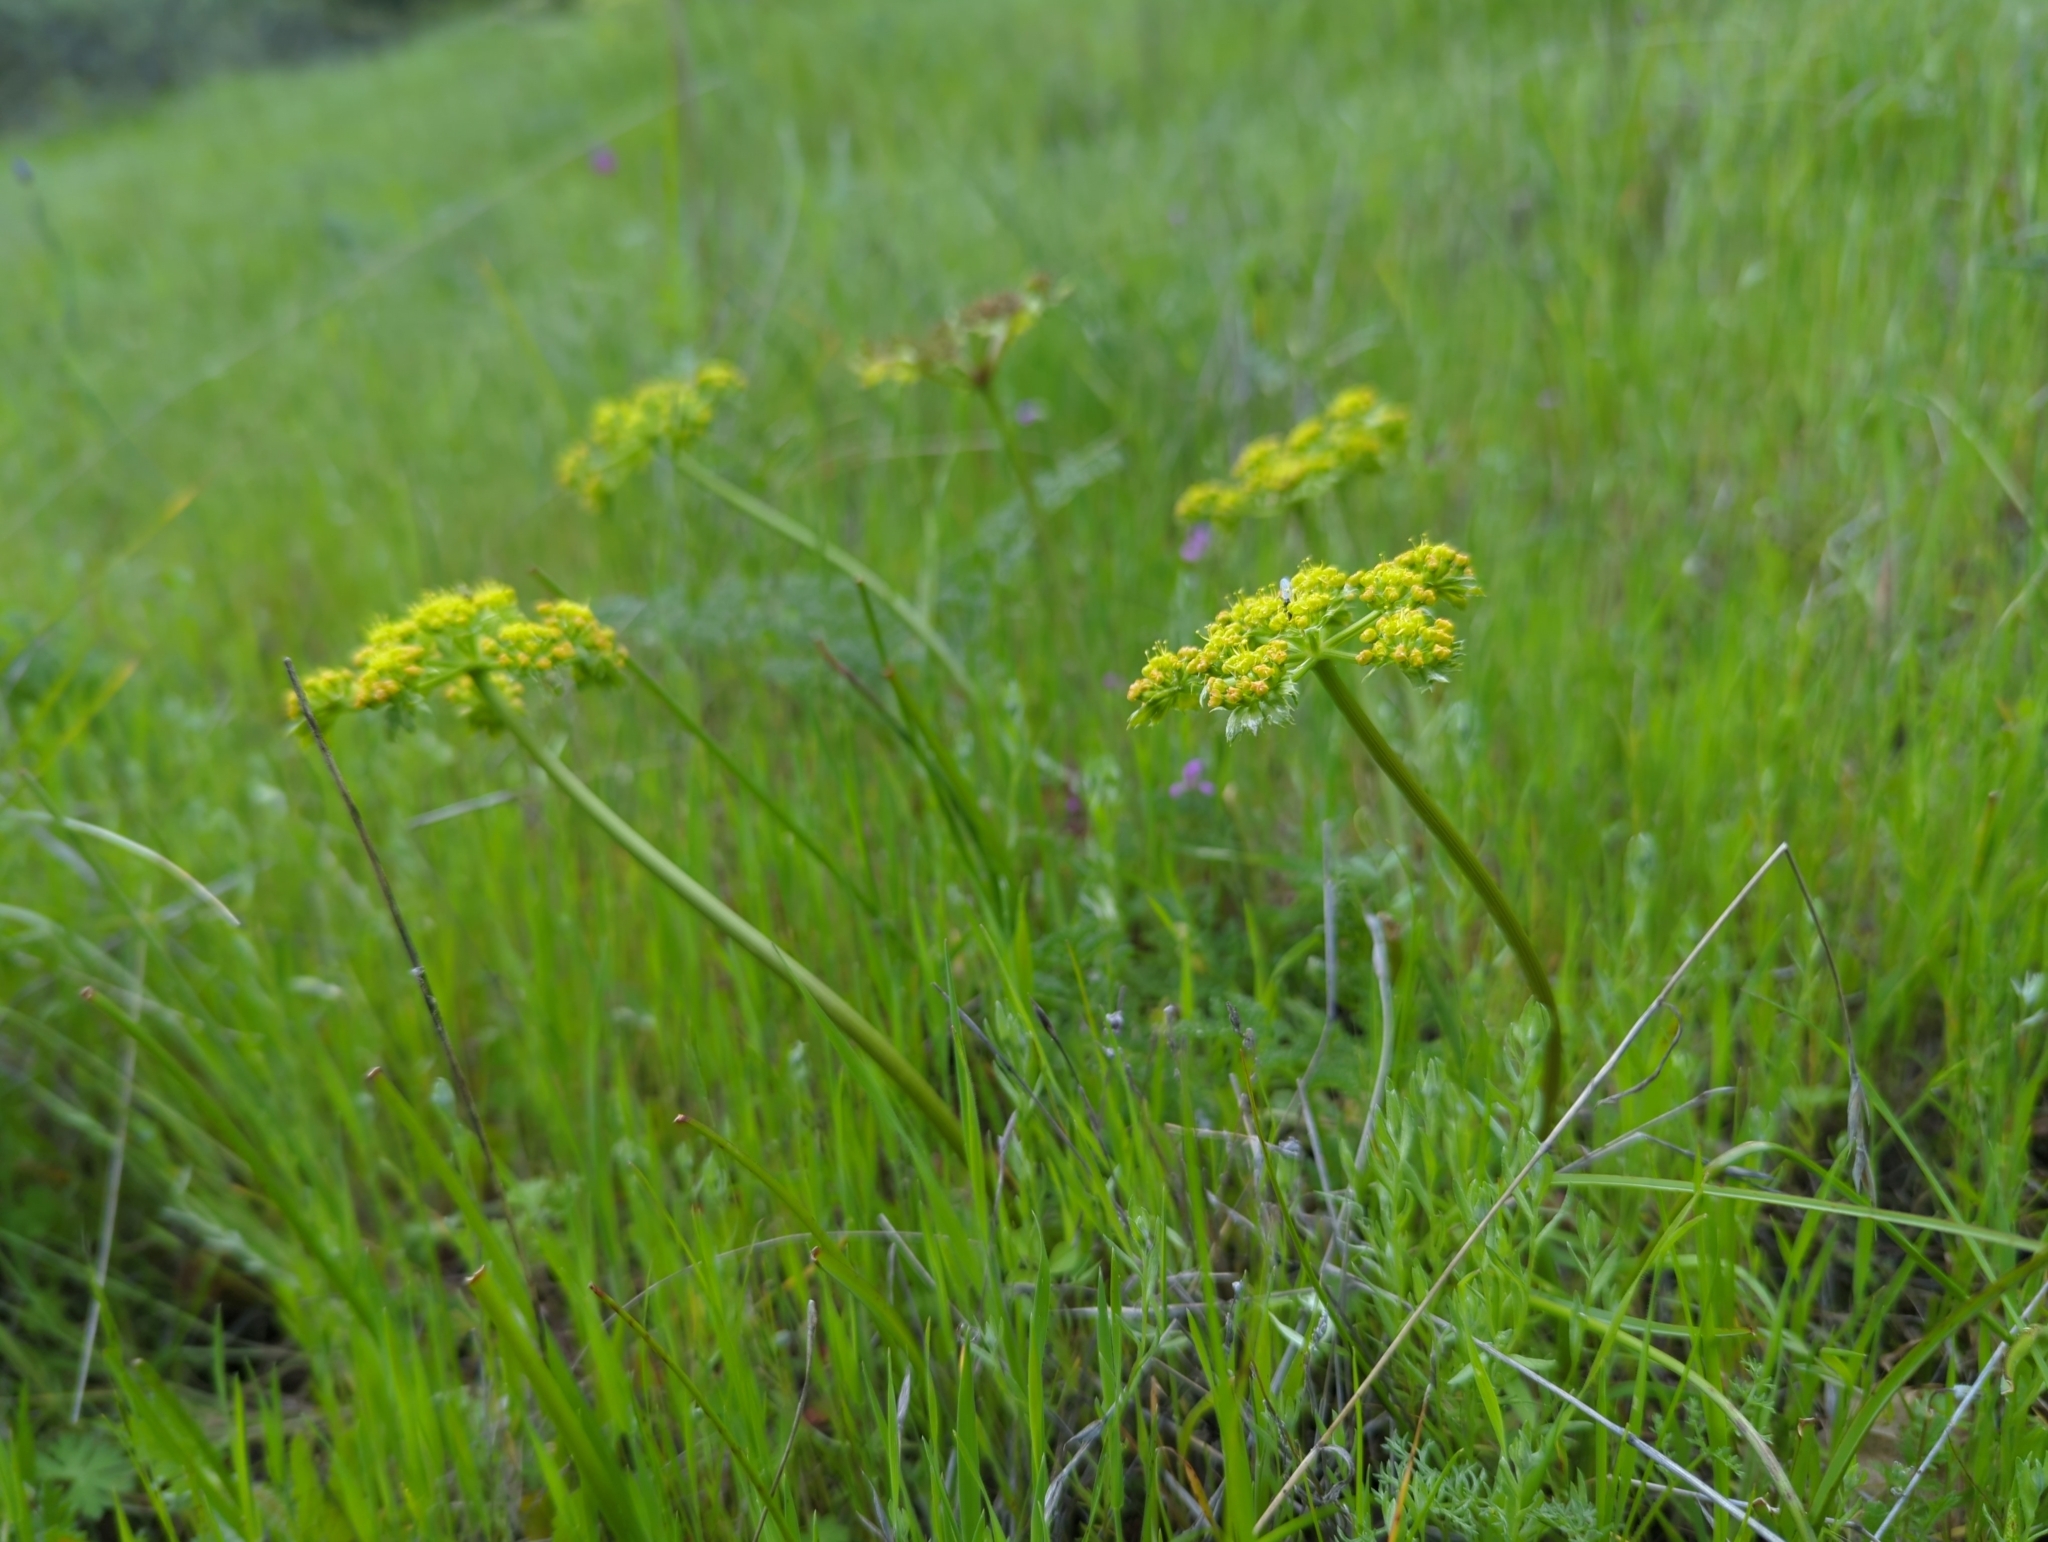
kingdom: Plantae
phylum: Tracheophyta
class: Magnoliopsida
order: Apiales
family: Apiaceae
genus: Lomatium
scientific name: Lomatium dasycarpum
